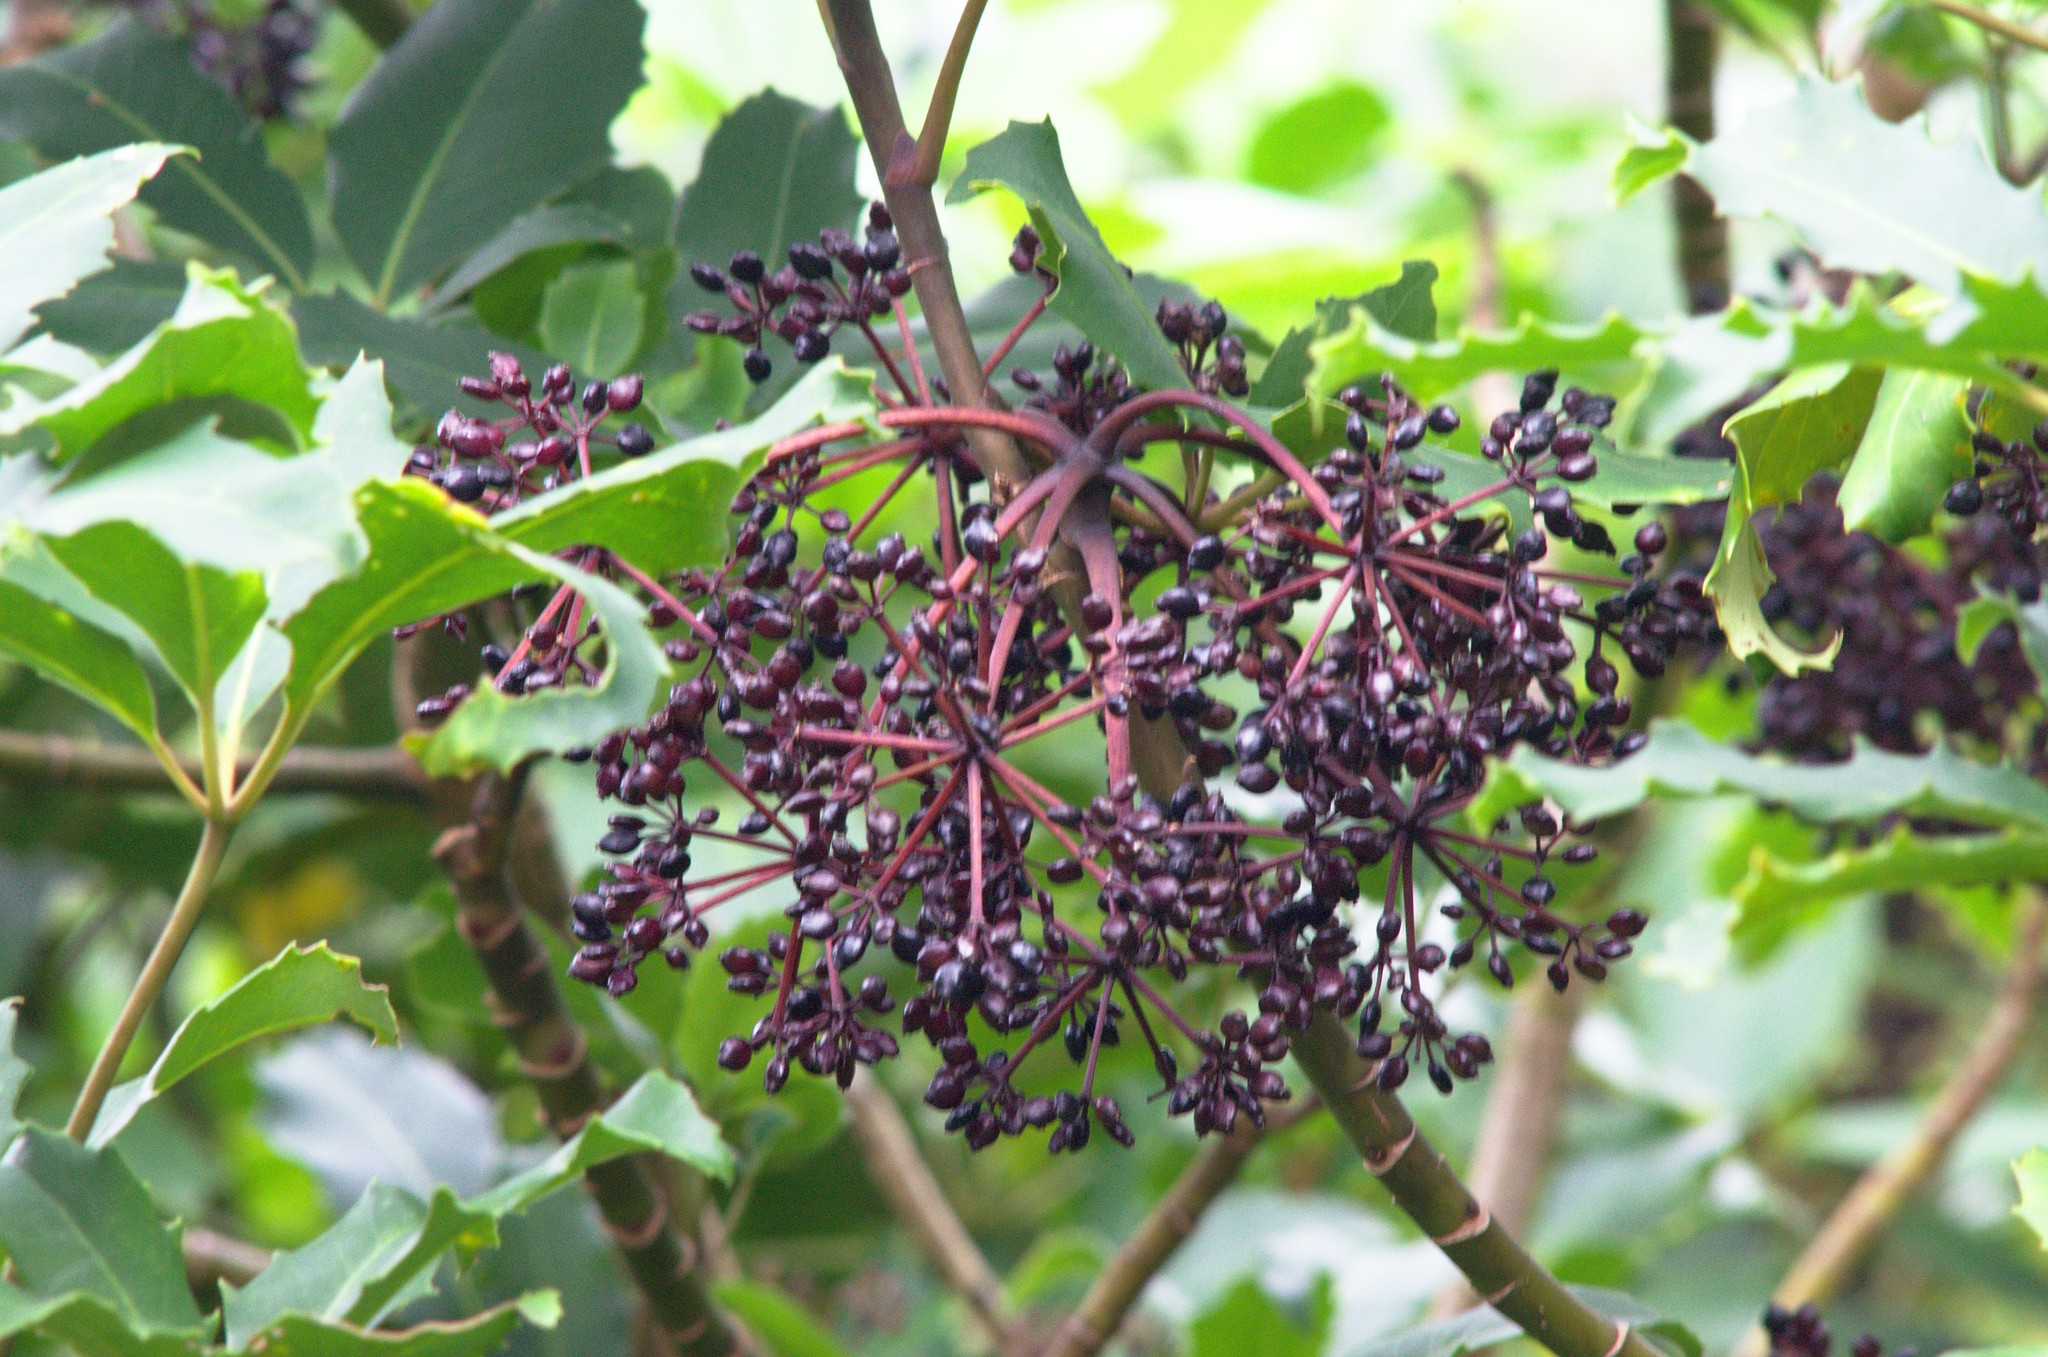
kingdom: Plantae
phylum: Tracheophyta
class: Magnoliopsida
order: Apiales
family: Araliaceae
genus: Neopanax
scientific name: Neopanax arboreus
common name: Five-fingers
